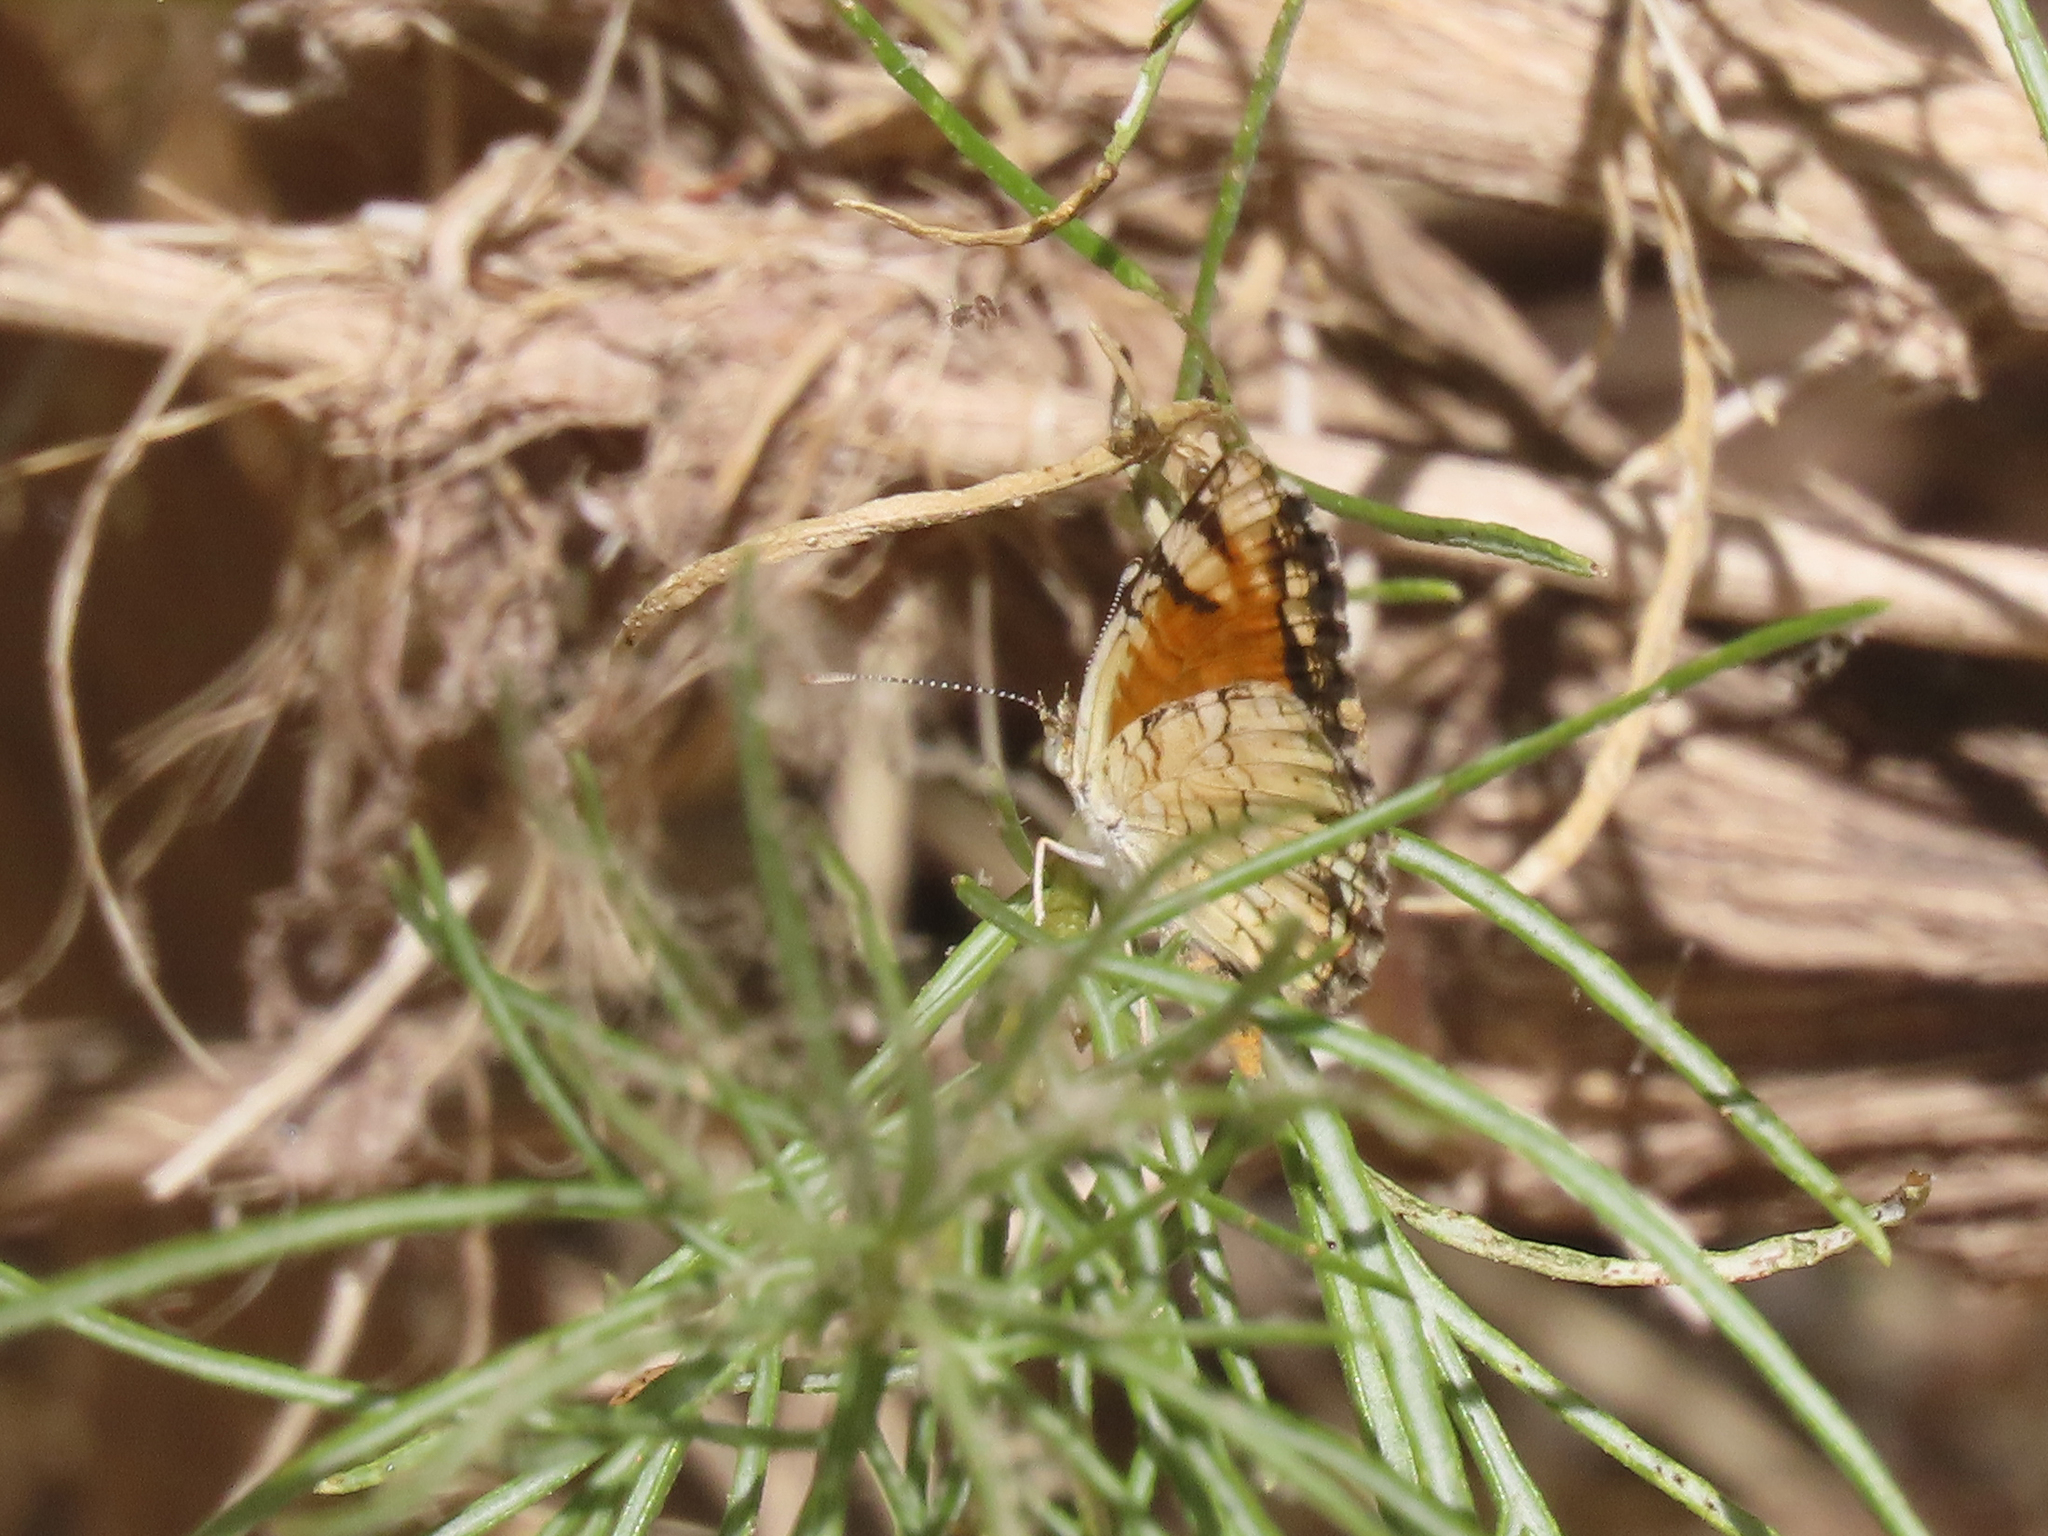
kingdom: Animalia
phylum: Arthropoda
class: Insecta
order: Lepidoptera
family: Nymphalidae
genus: Phyciodes
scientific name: Phyciodes picta
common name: Painted crescent
